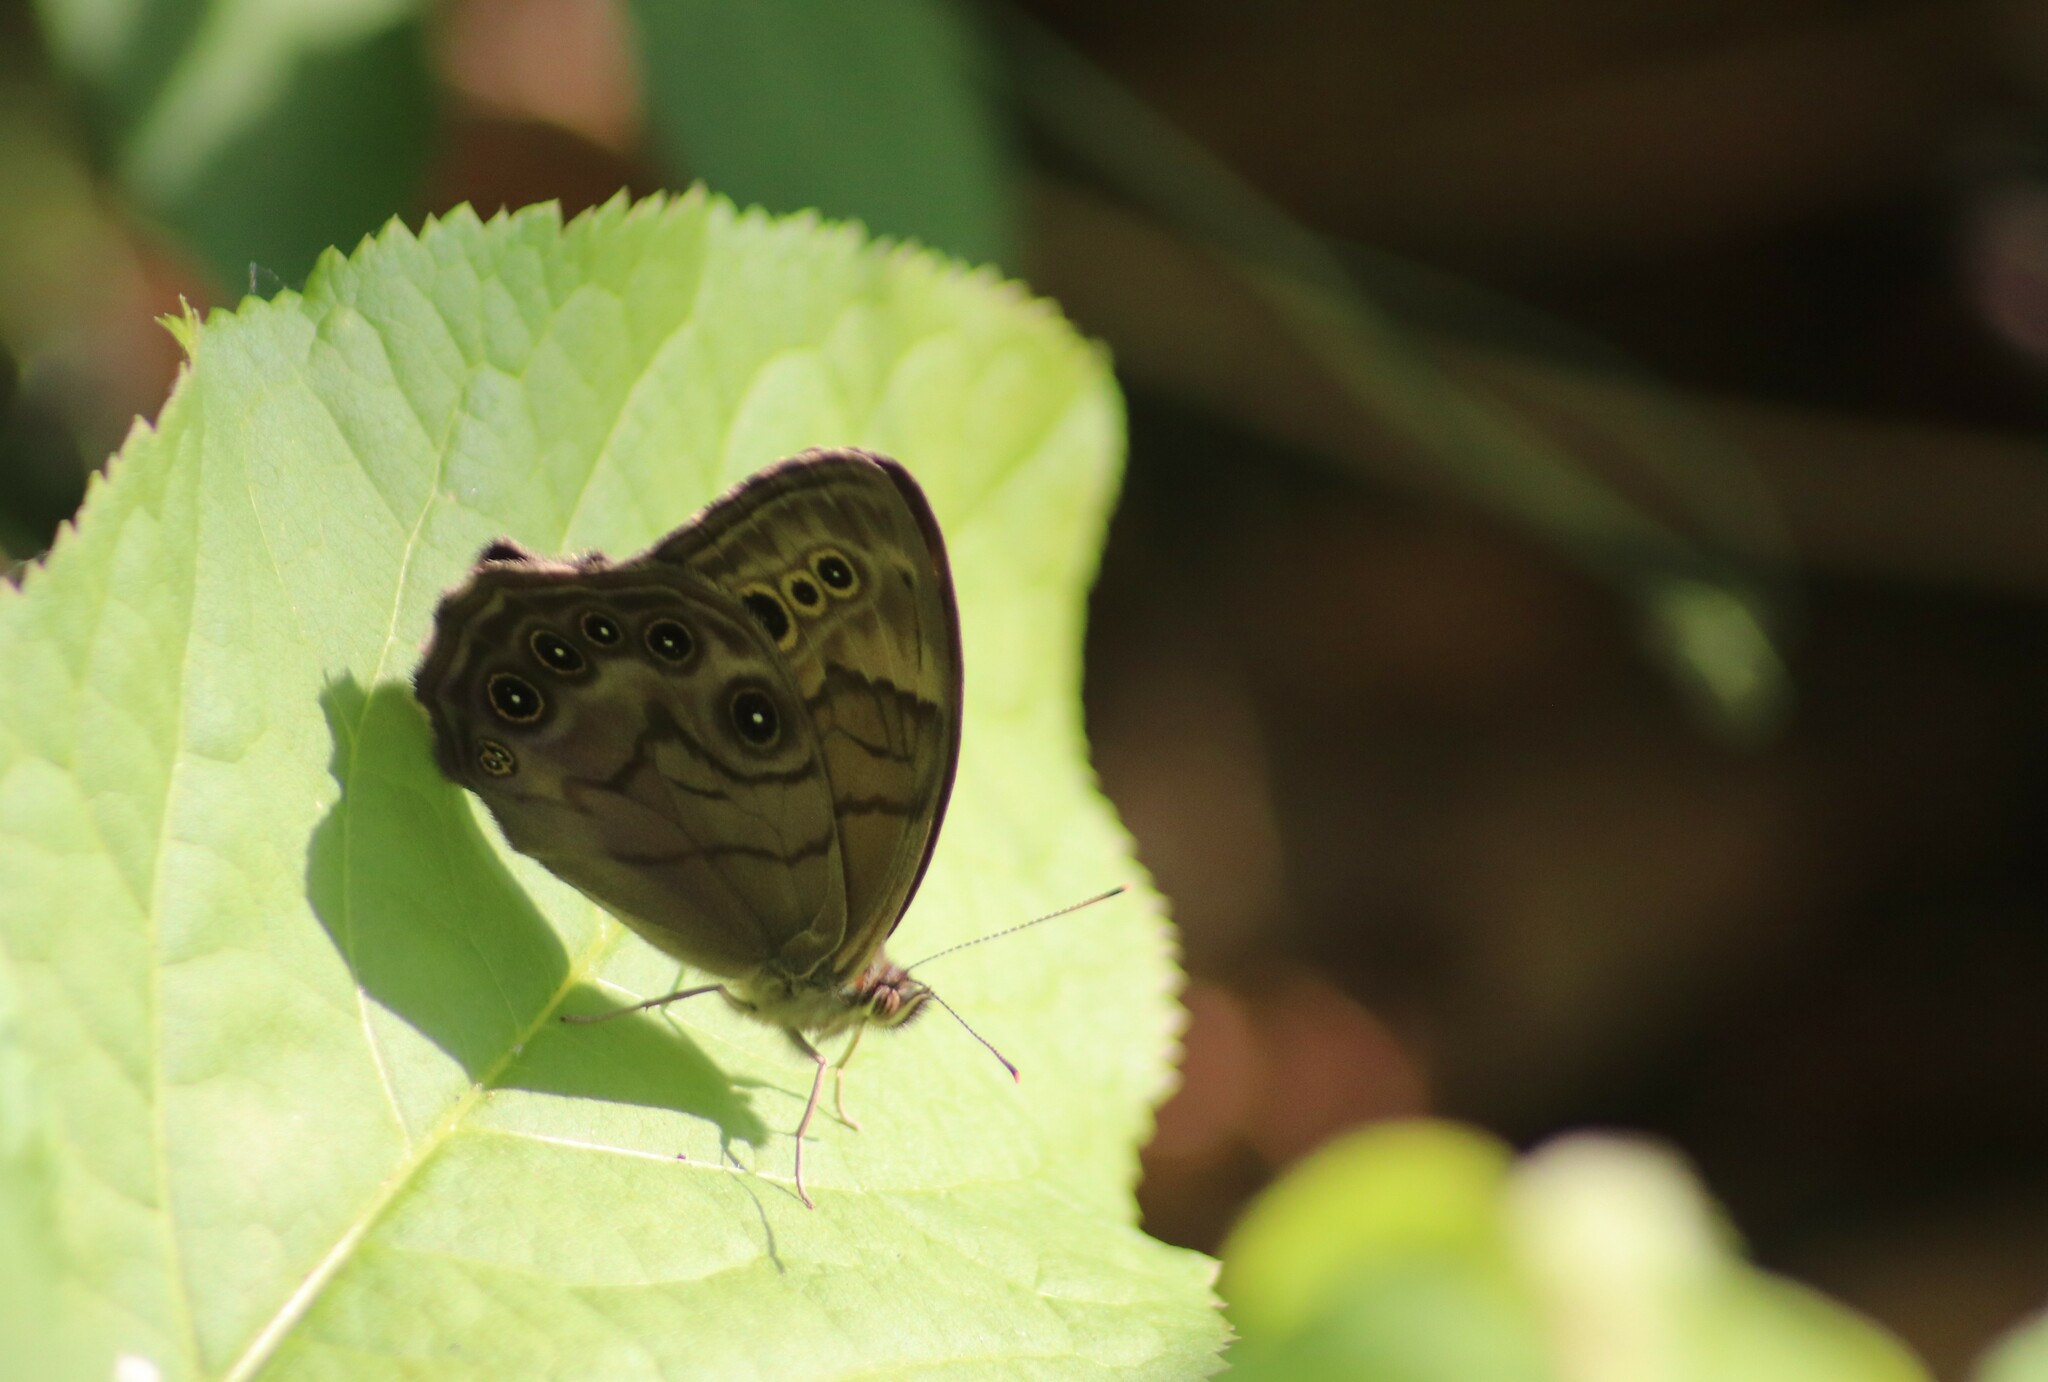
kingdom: Animalia
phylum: Arthropoda
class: Insecta
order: Lepidoptera
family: Nymphalidae
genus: Lethe
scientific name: Lethe anthedon
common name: Northern pearly-eye
